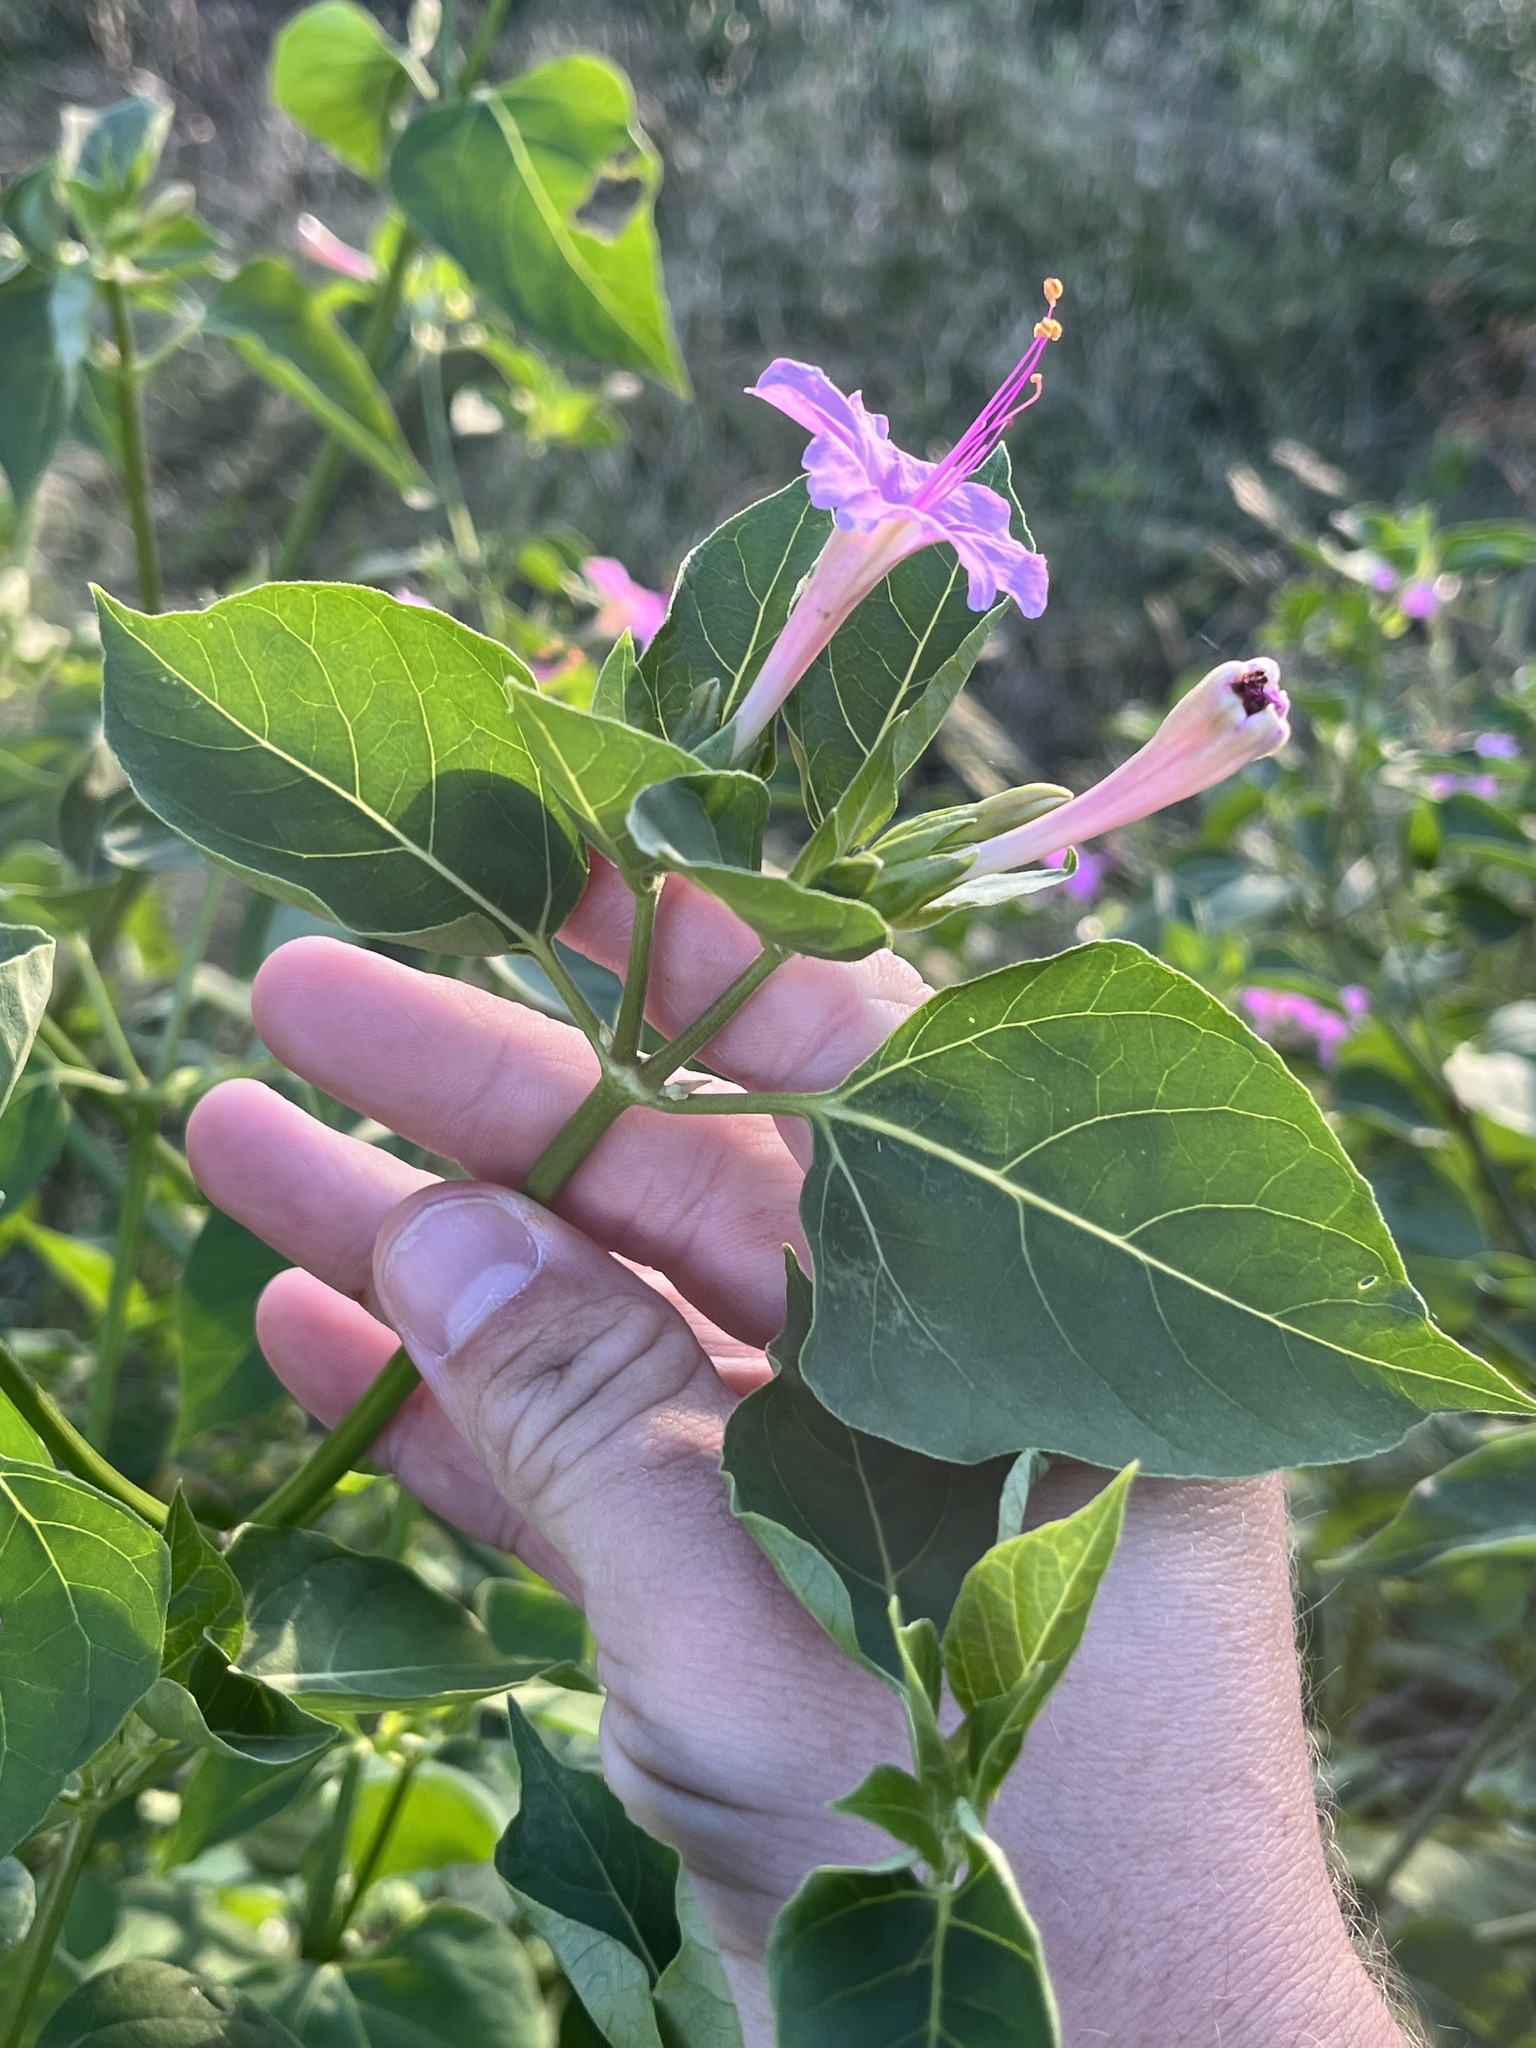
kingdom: Plantae
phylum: Tracheophyta
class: Magnoliopsida
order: Caryophyllales
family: Nyctaginaceae
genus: Mirabilis
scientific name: Mirabilis jalapa
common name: Marvel-of-peru
